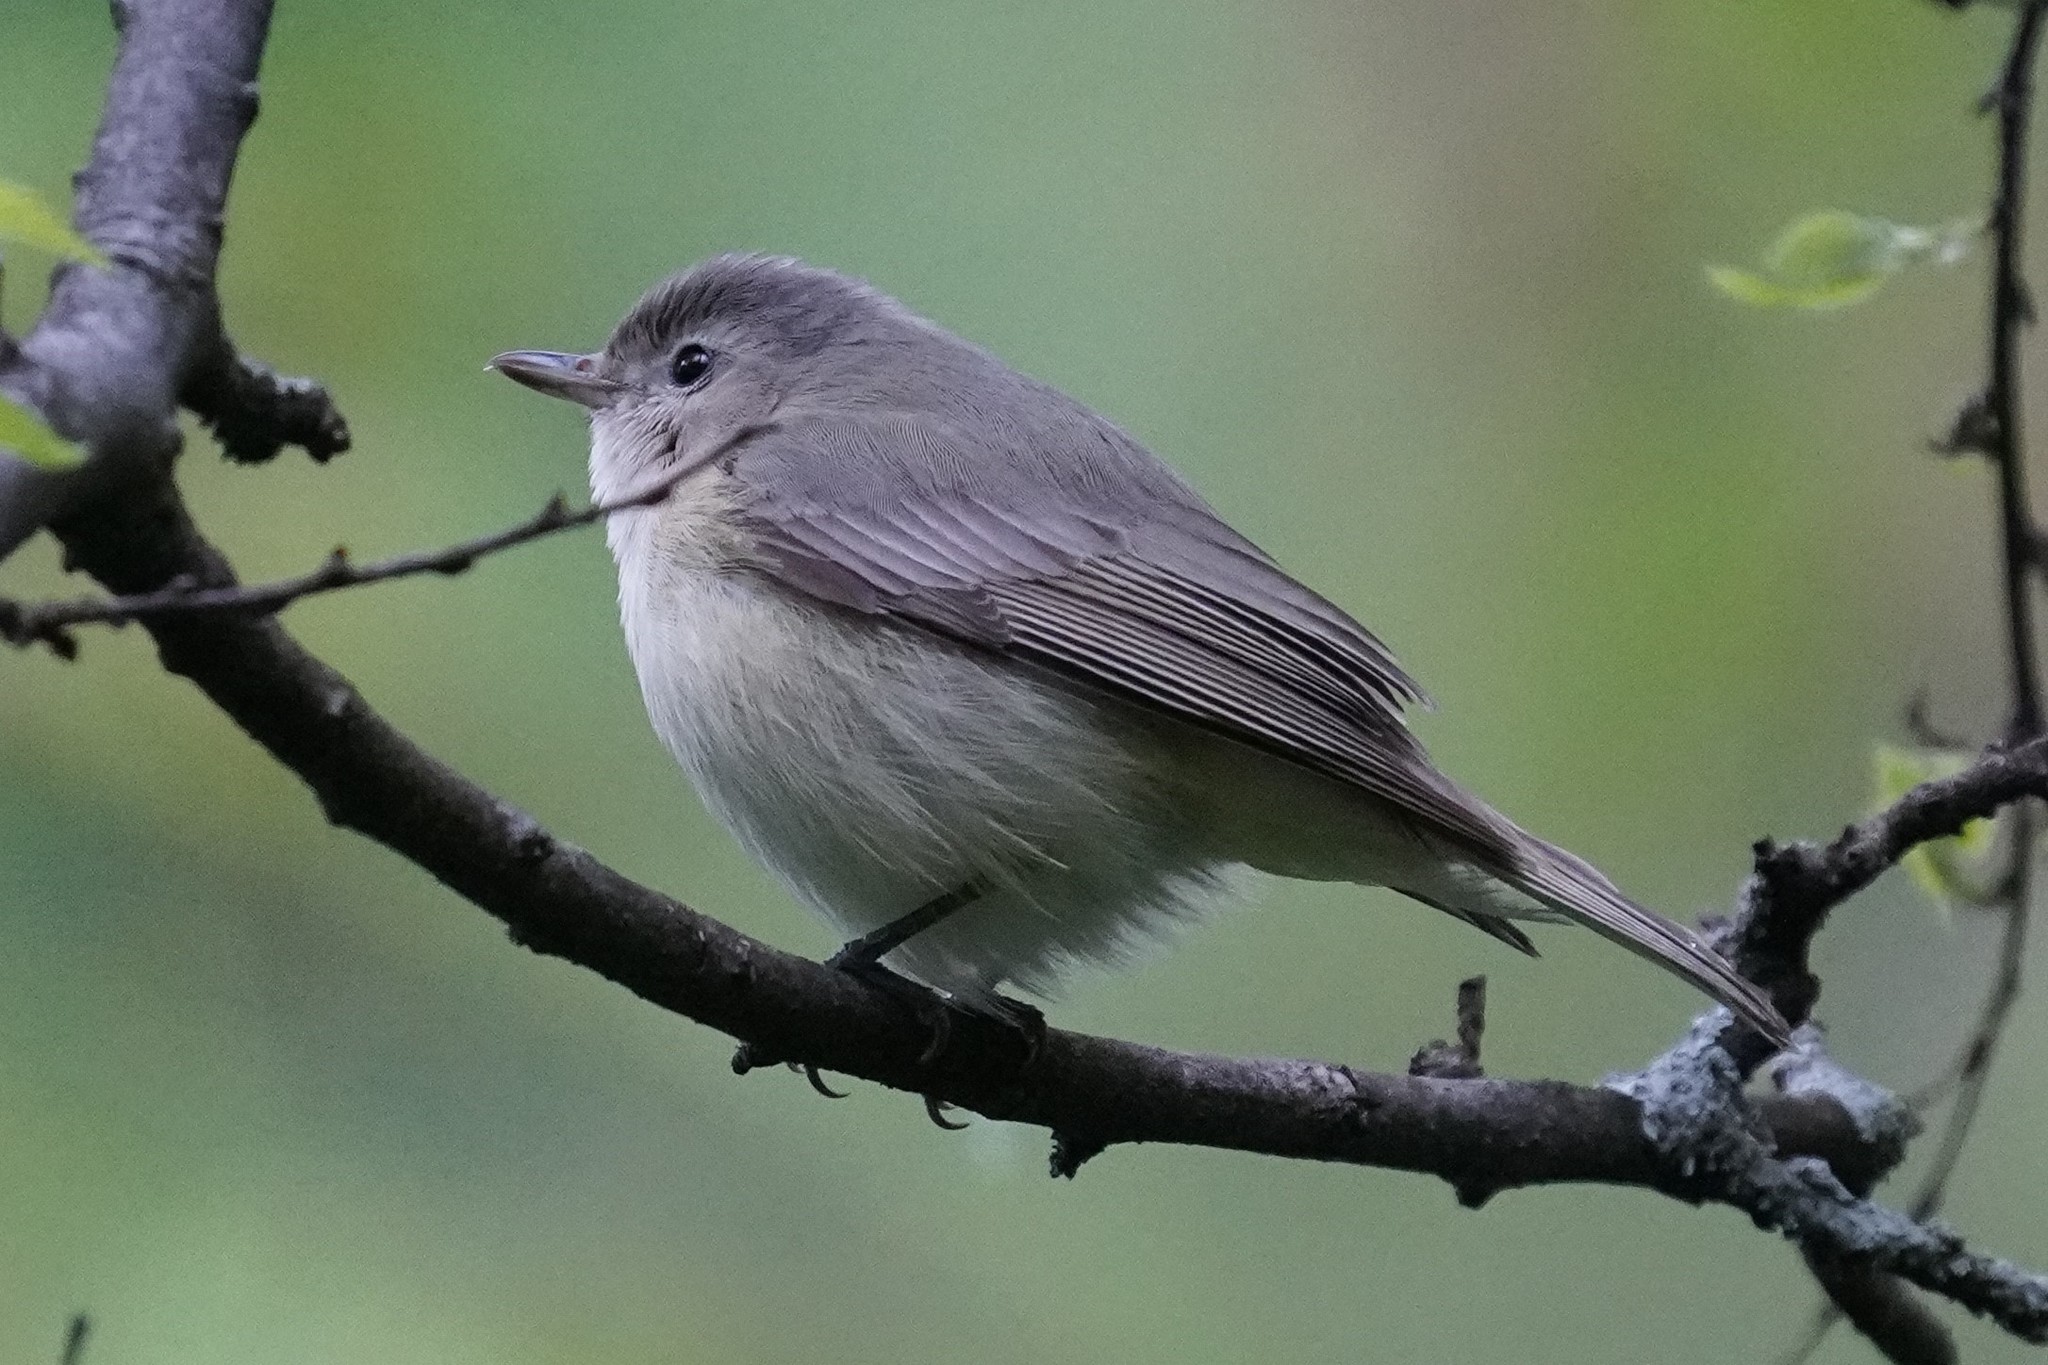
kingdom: Animalia
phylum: Chordata
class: Aves
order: Passeriformes
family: Vireonidae
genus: Vireo
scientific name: Vireo gilvus
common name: Warbling vireo
